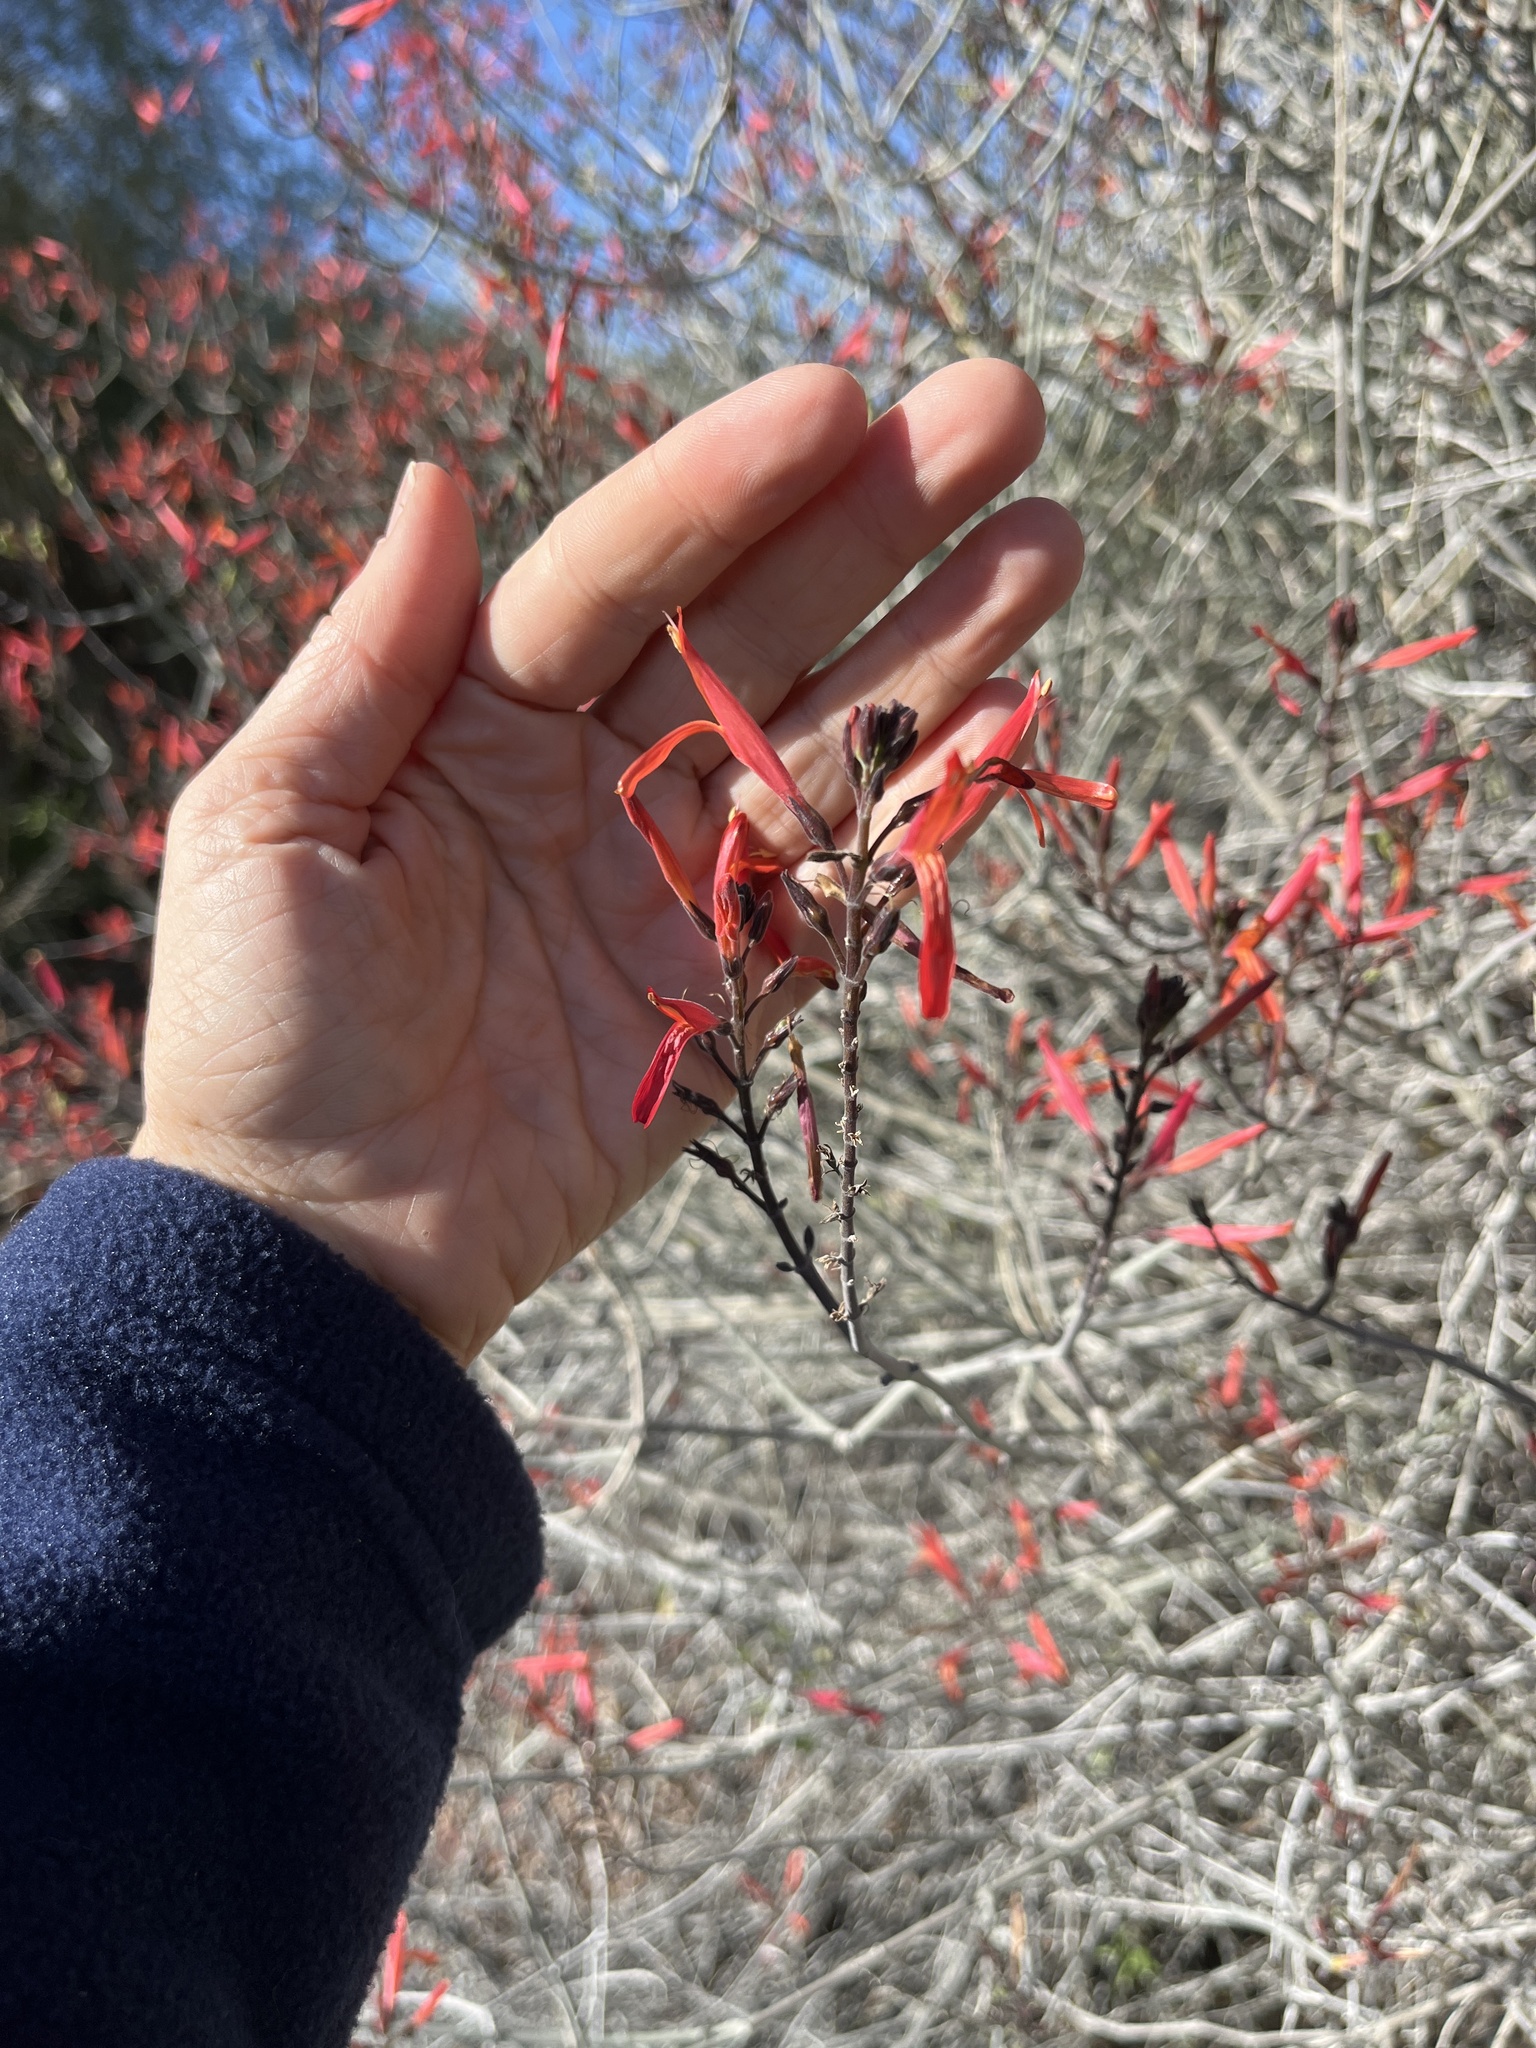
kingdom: Plantae
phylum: Tracheophyta
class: Magnoliopsida
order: Lamiales
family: Acanthaceae
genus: Justicia
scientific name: Justicia californica
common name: Chuparosa-honeysuckle
